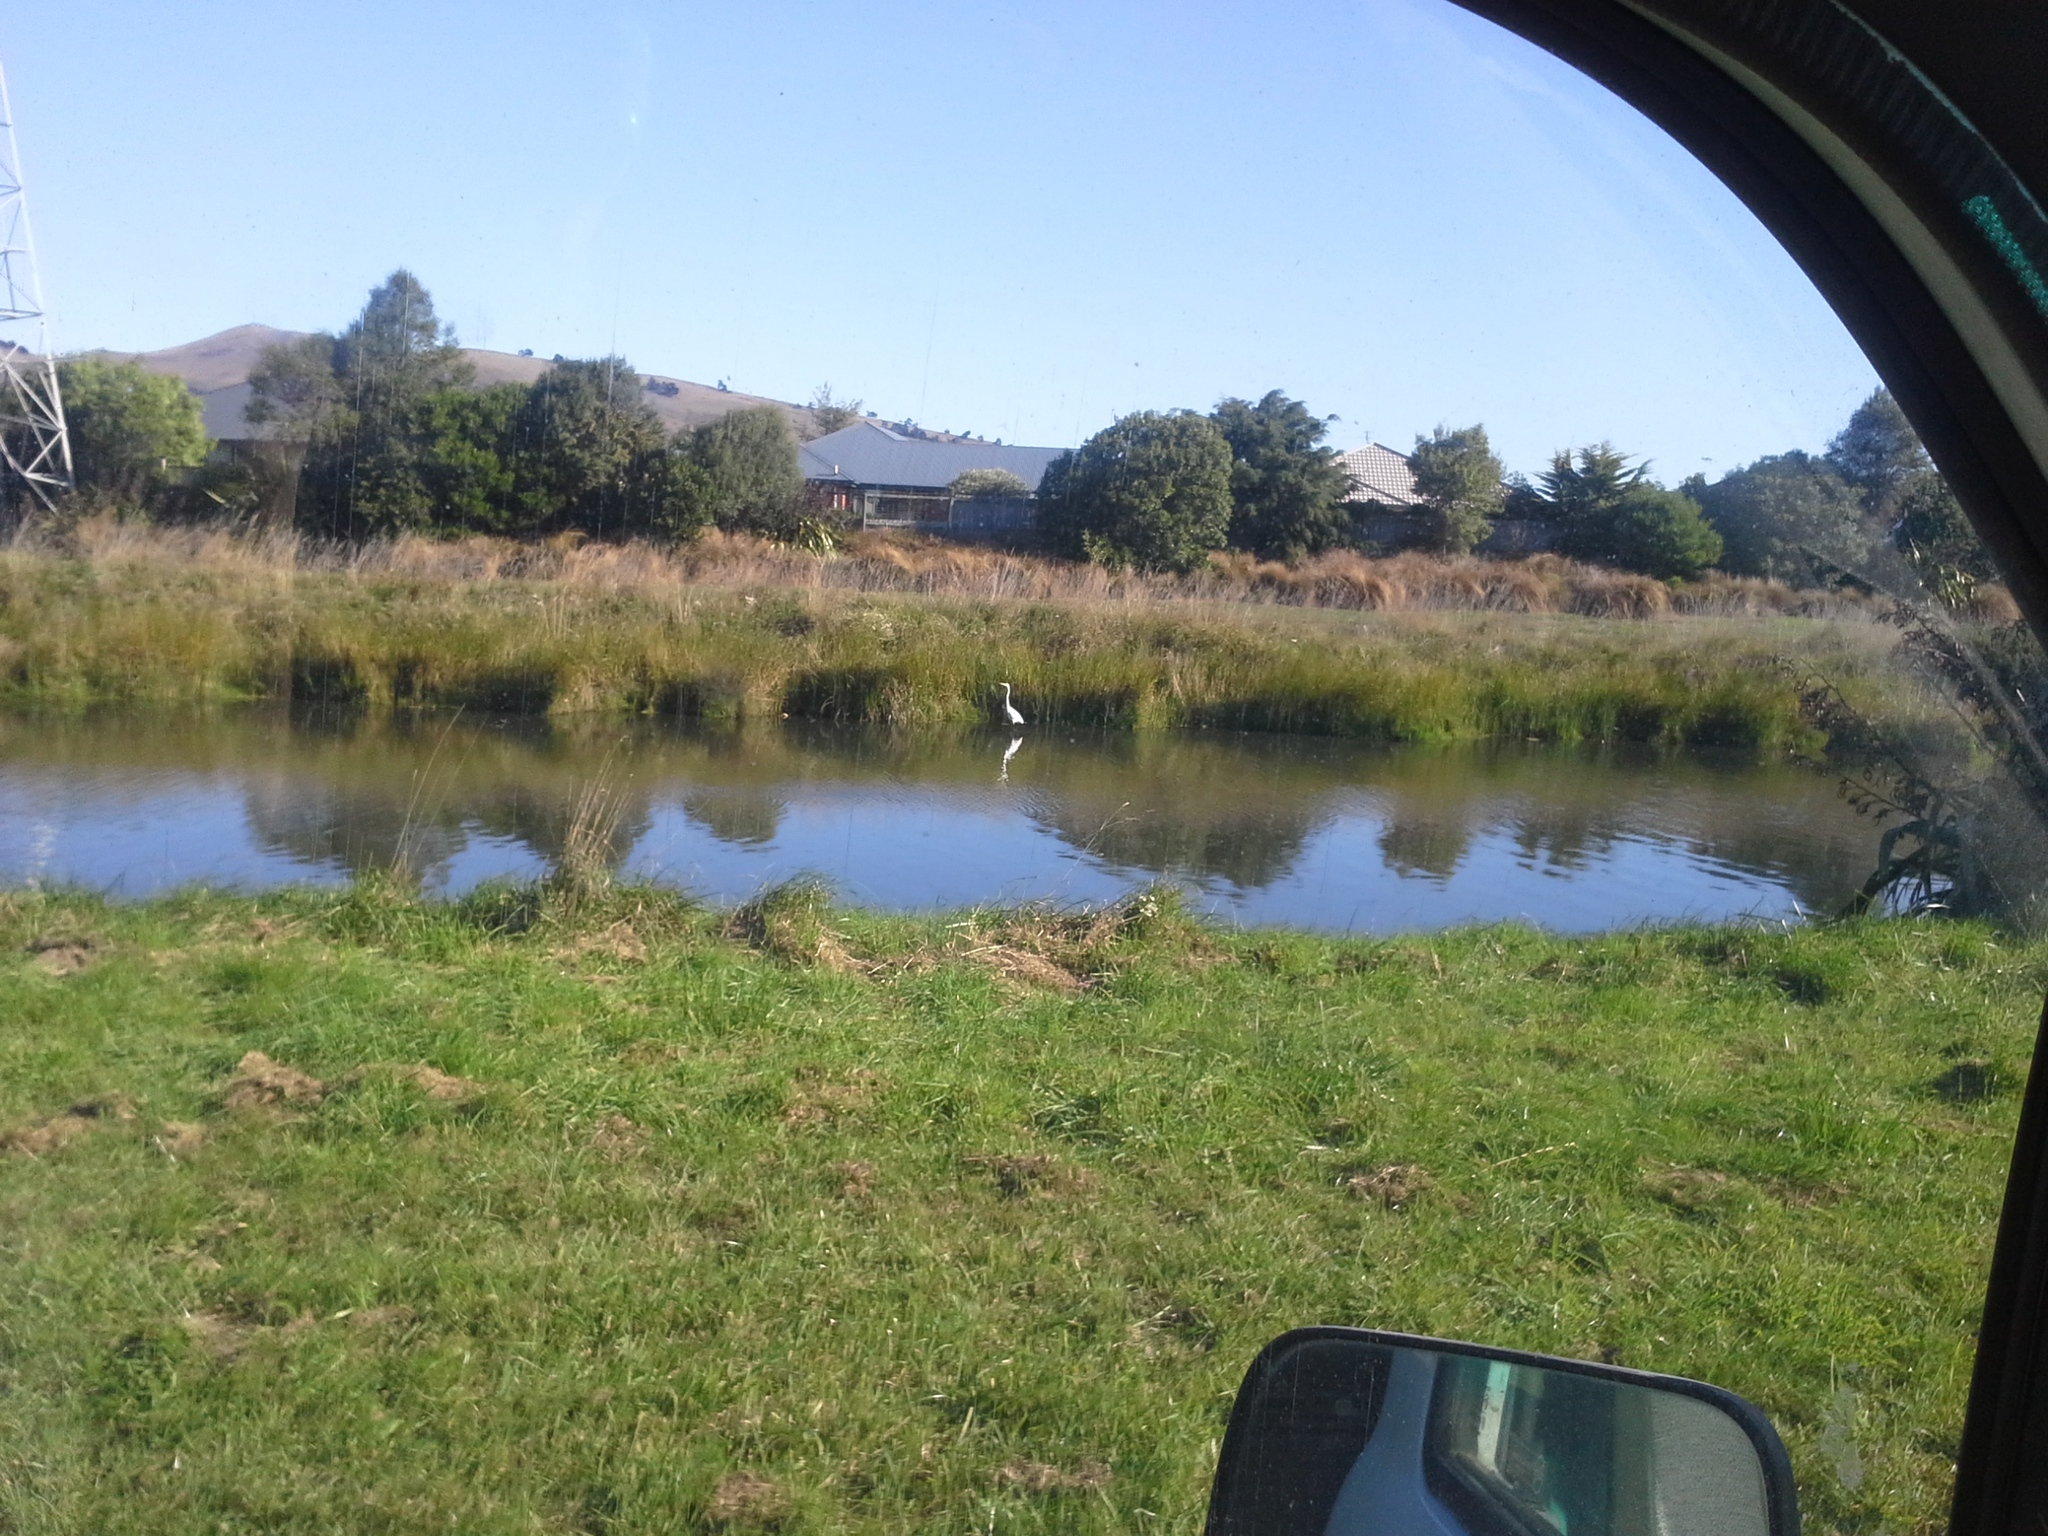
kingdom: Animalia
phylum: Chordata
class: Aves
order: Pelecaniformes
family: Ardeidae
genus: Ardea
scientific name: Ardea modesta
